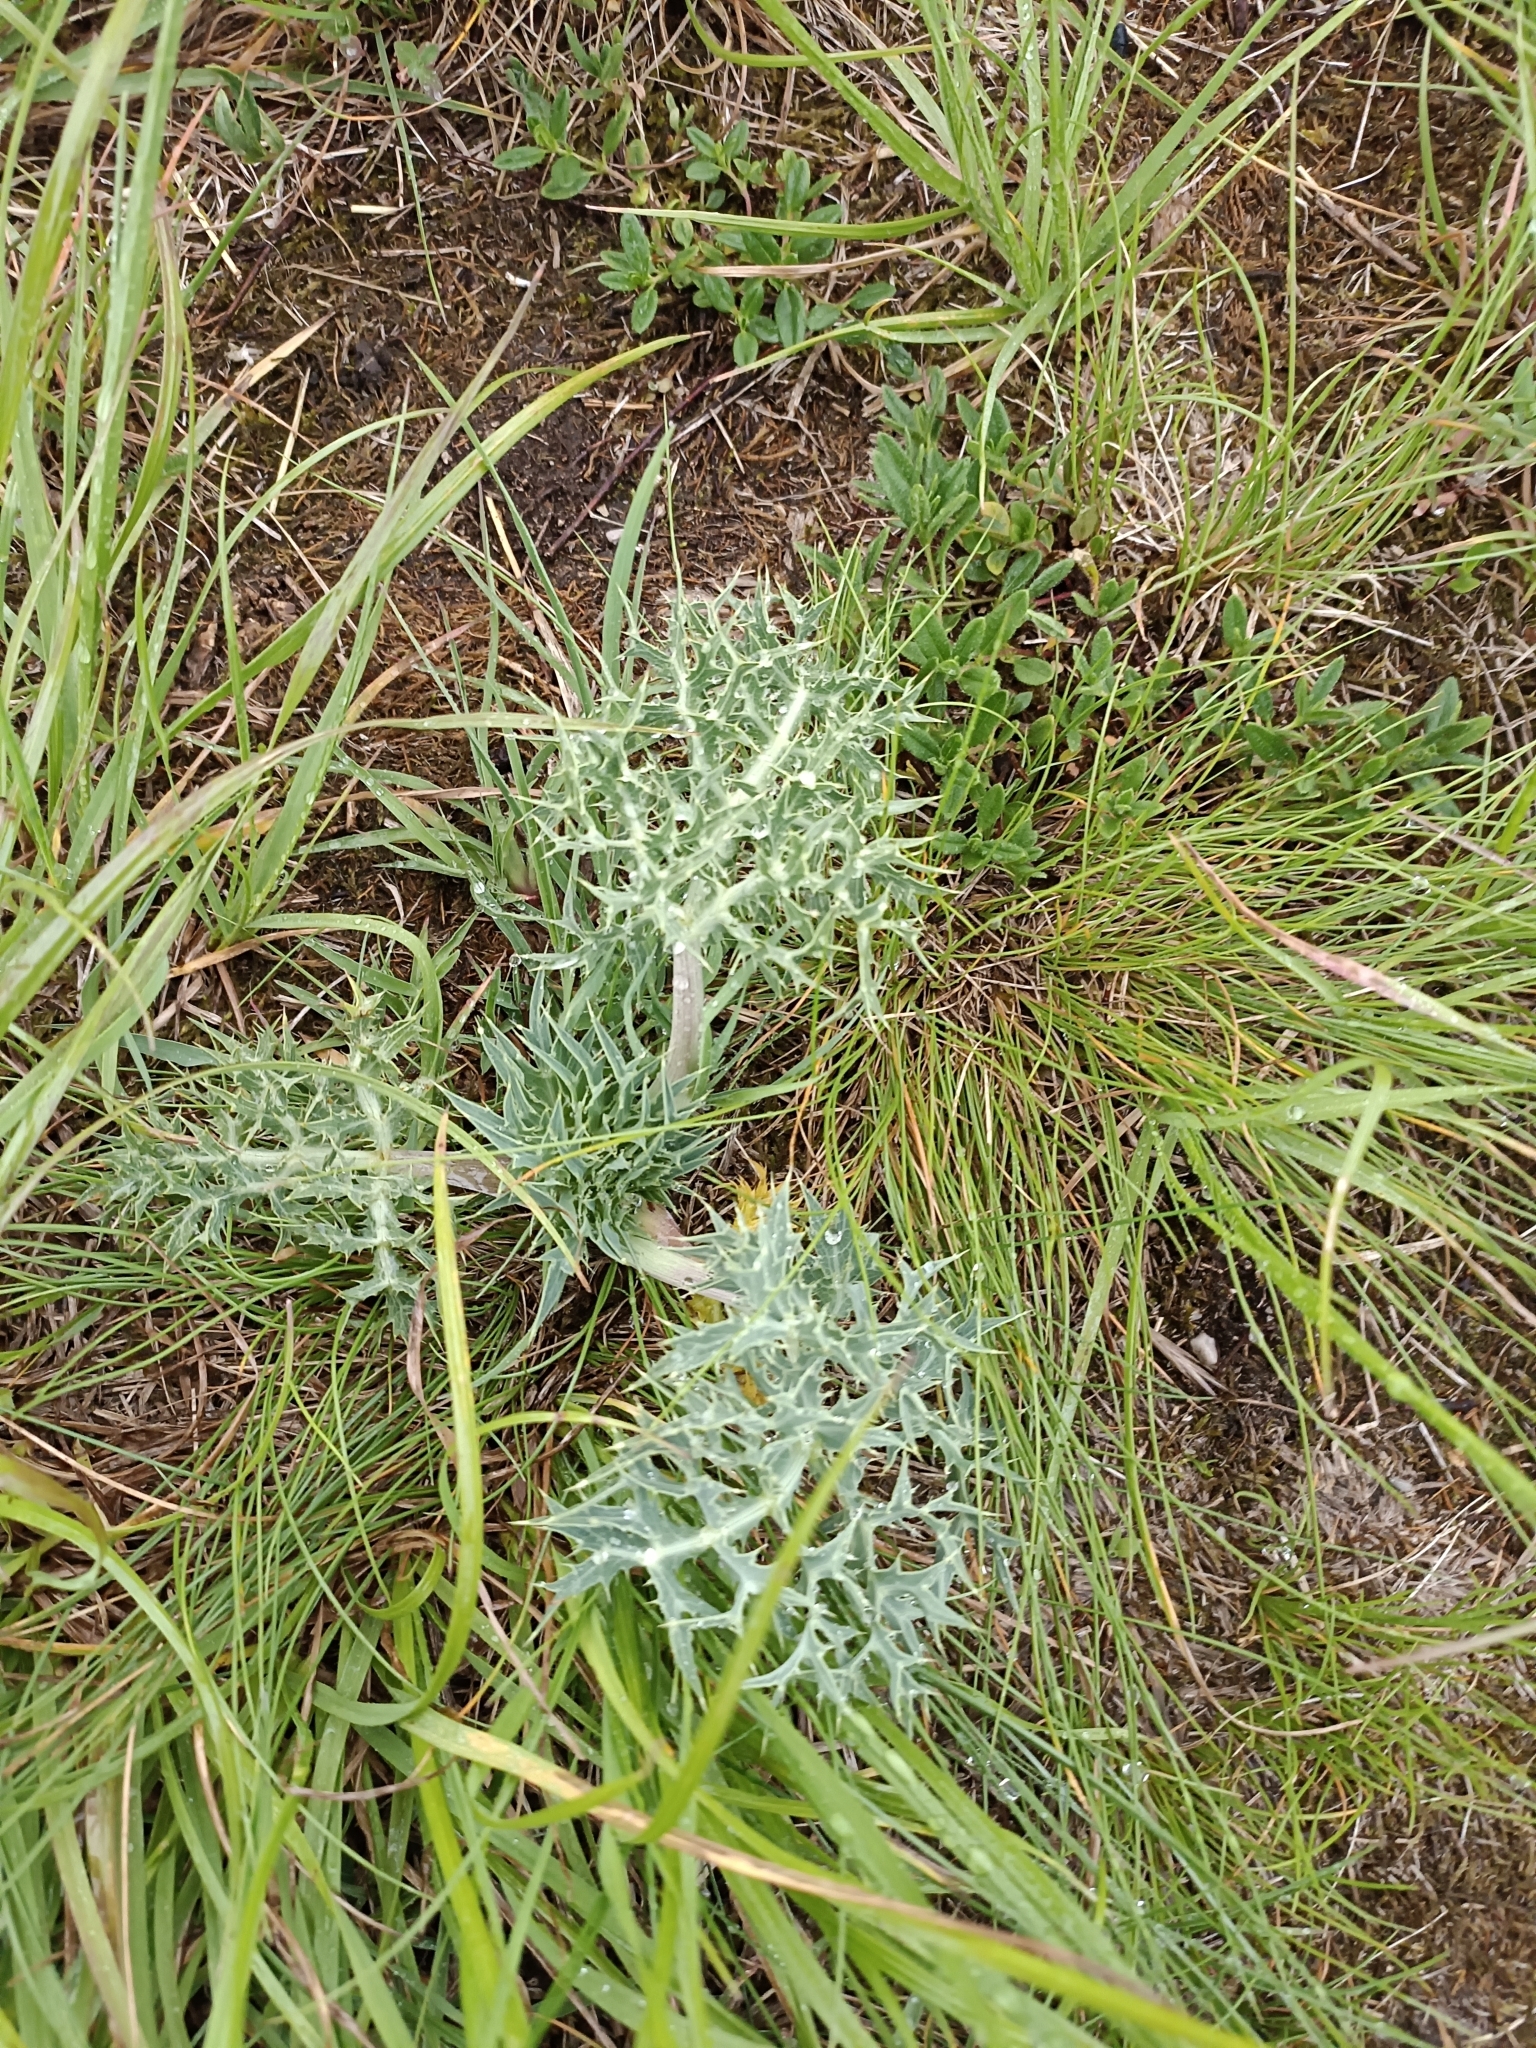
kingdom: Plantae
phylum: Tracheophyta
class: Magnoliopsida
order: Apiales
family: Apiaceae
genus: Eryngium
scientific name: Eryngium campestre
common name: Field eryngo
